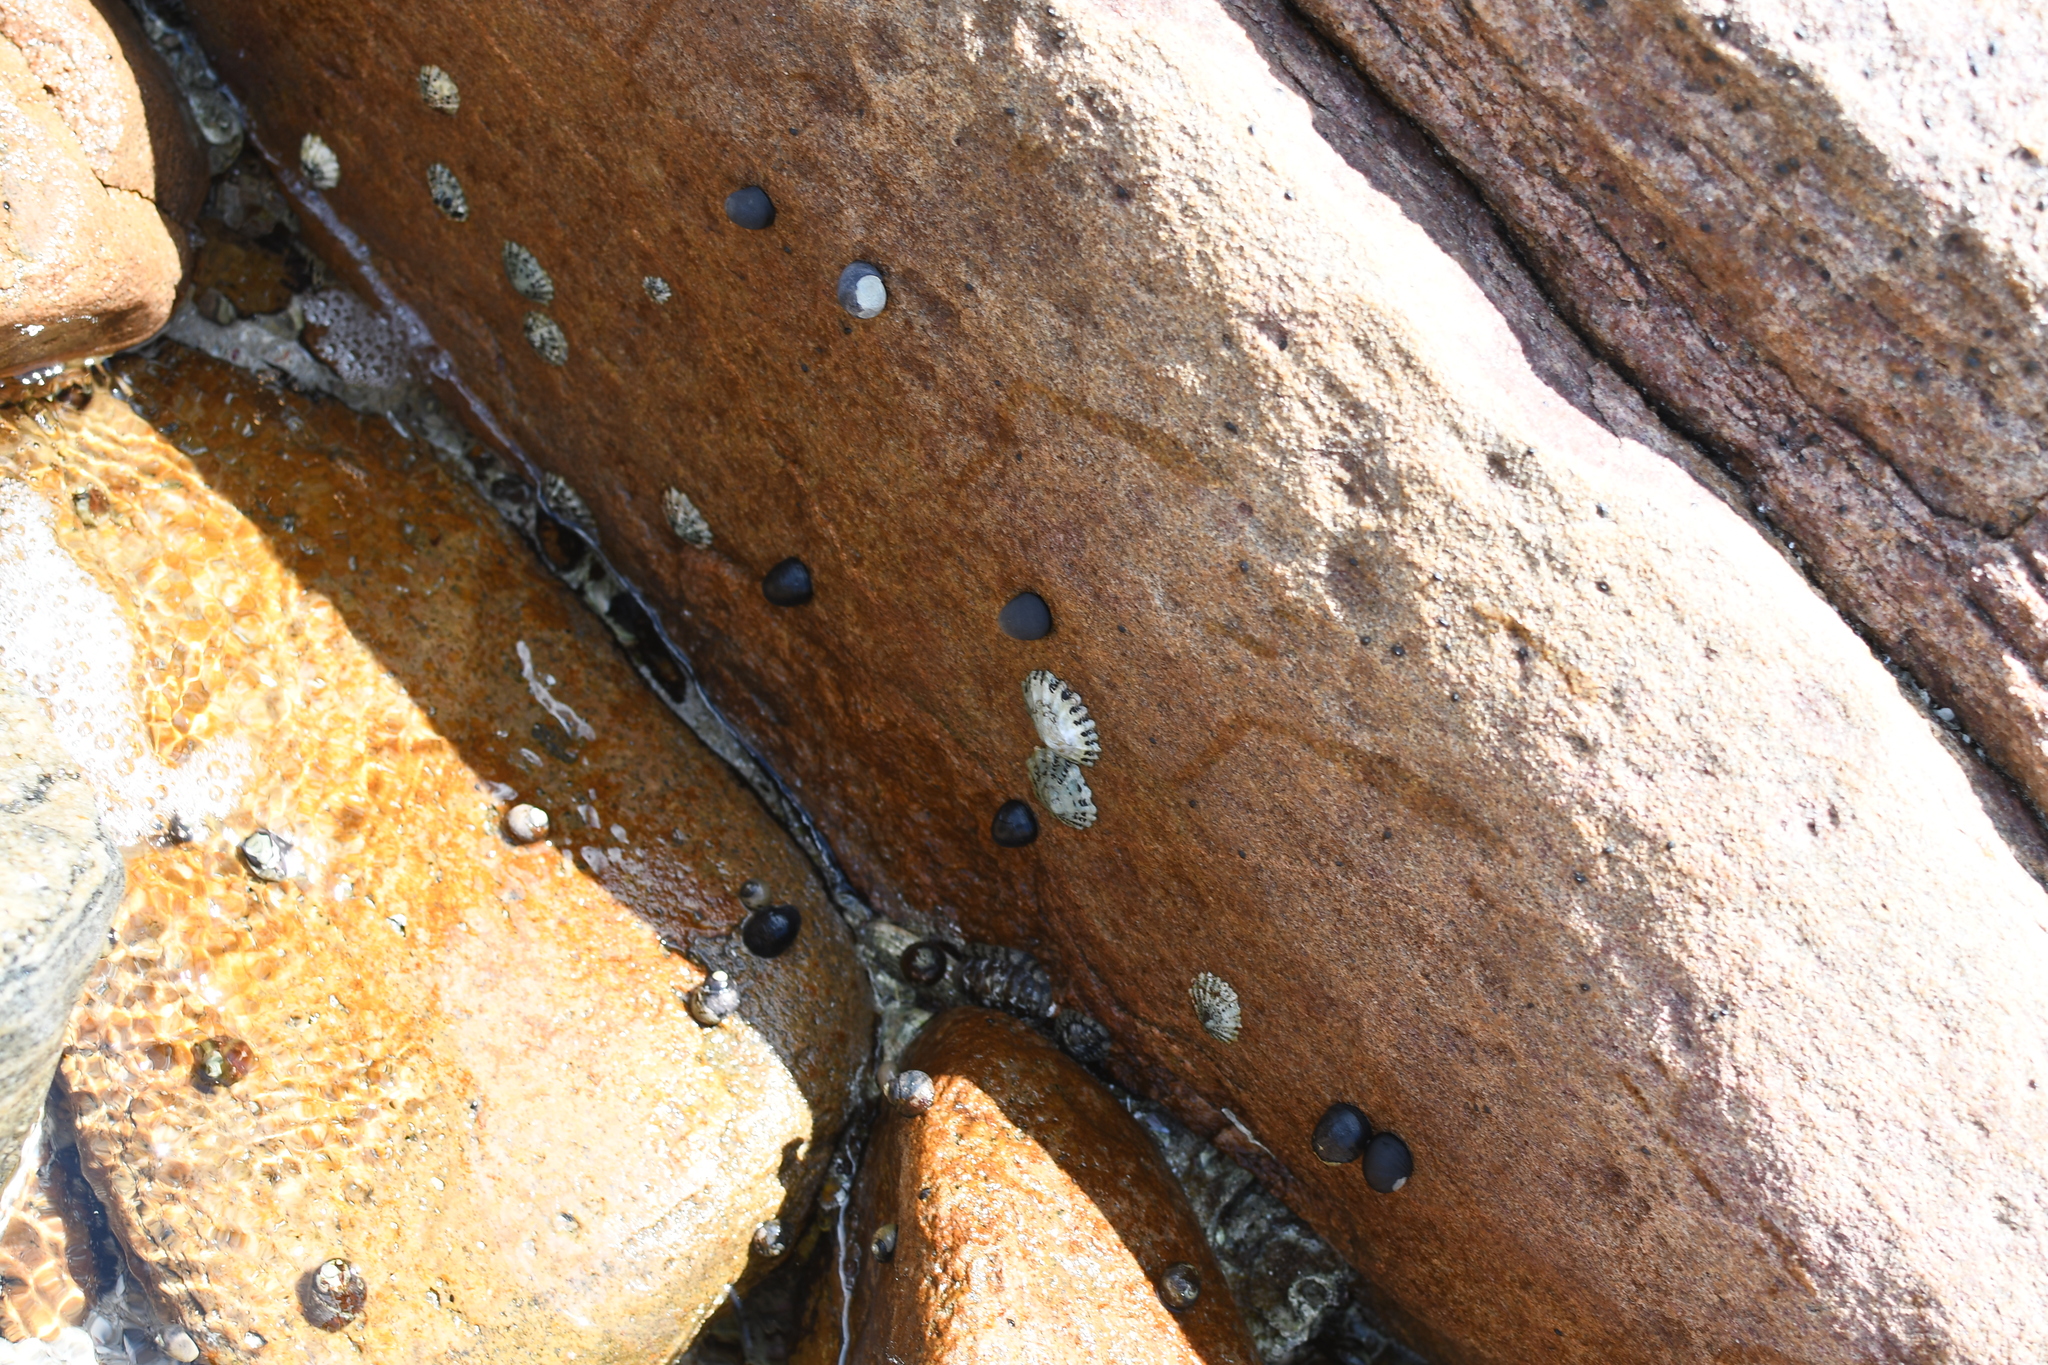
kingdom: Animalia
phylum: Mollusca
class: Gastropoda
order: Cycloneritida
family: Neritidae
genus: Nerita
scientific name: Nerita atramentosa
